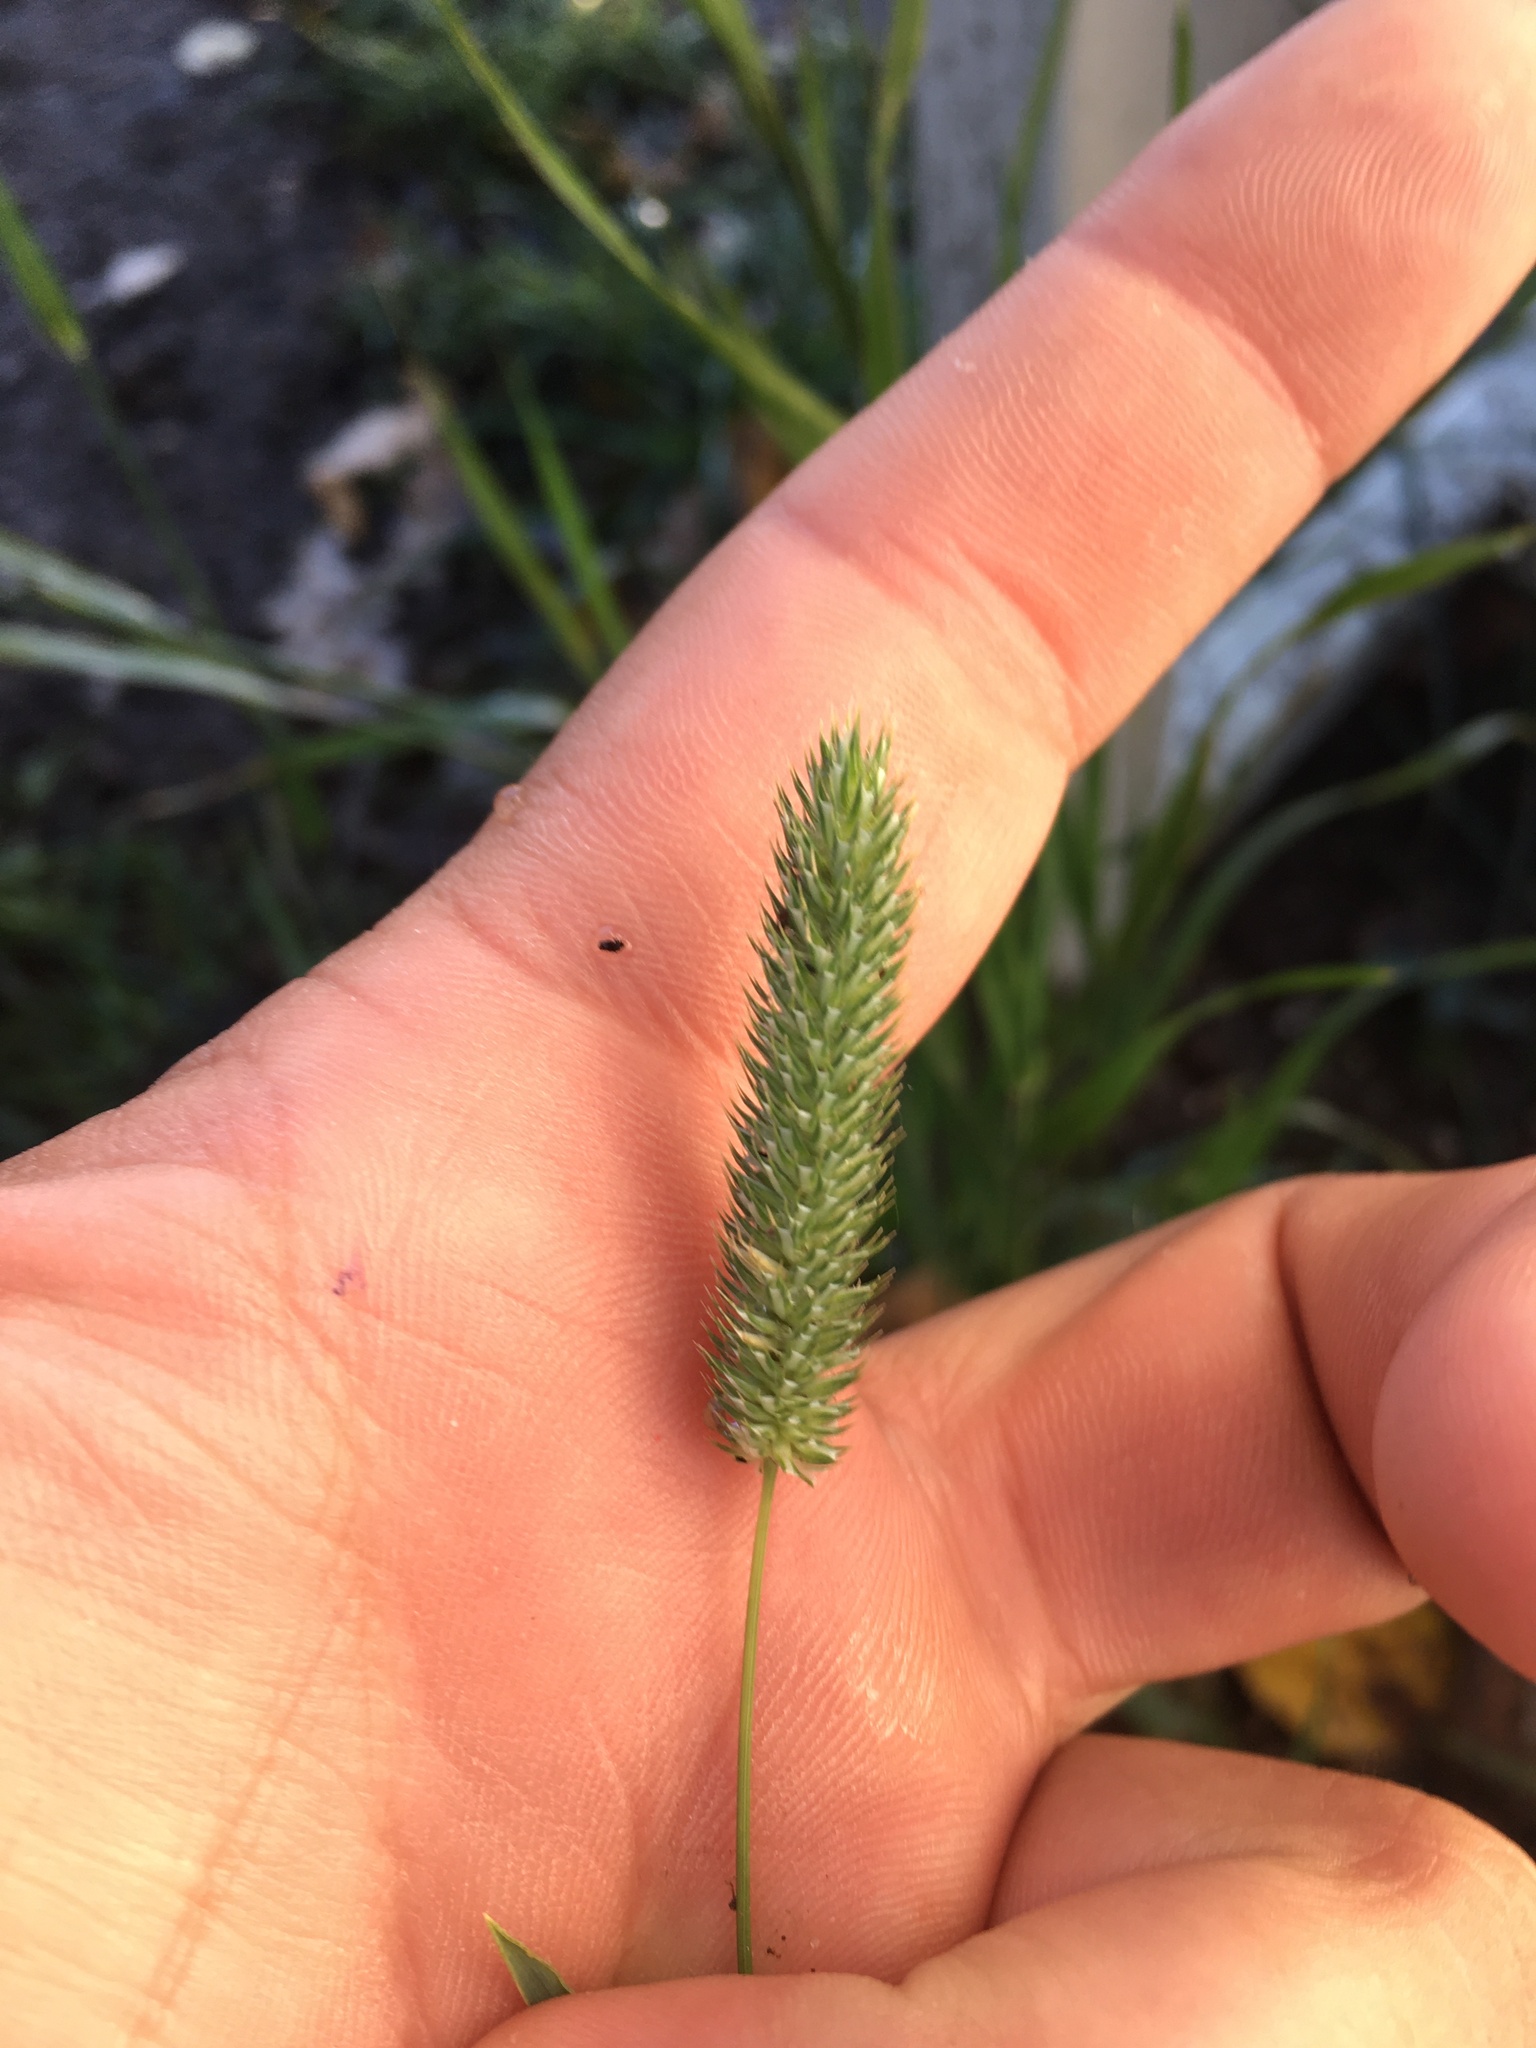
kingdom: Plantae
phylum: Tracheophyta
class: Liliopsida
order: Poales
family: Poaceae
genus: Phleum
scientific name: Phleum pratense
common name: Timothy grass
